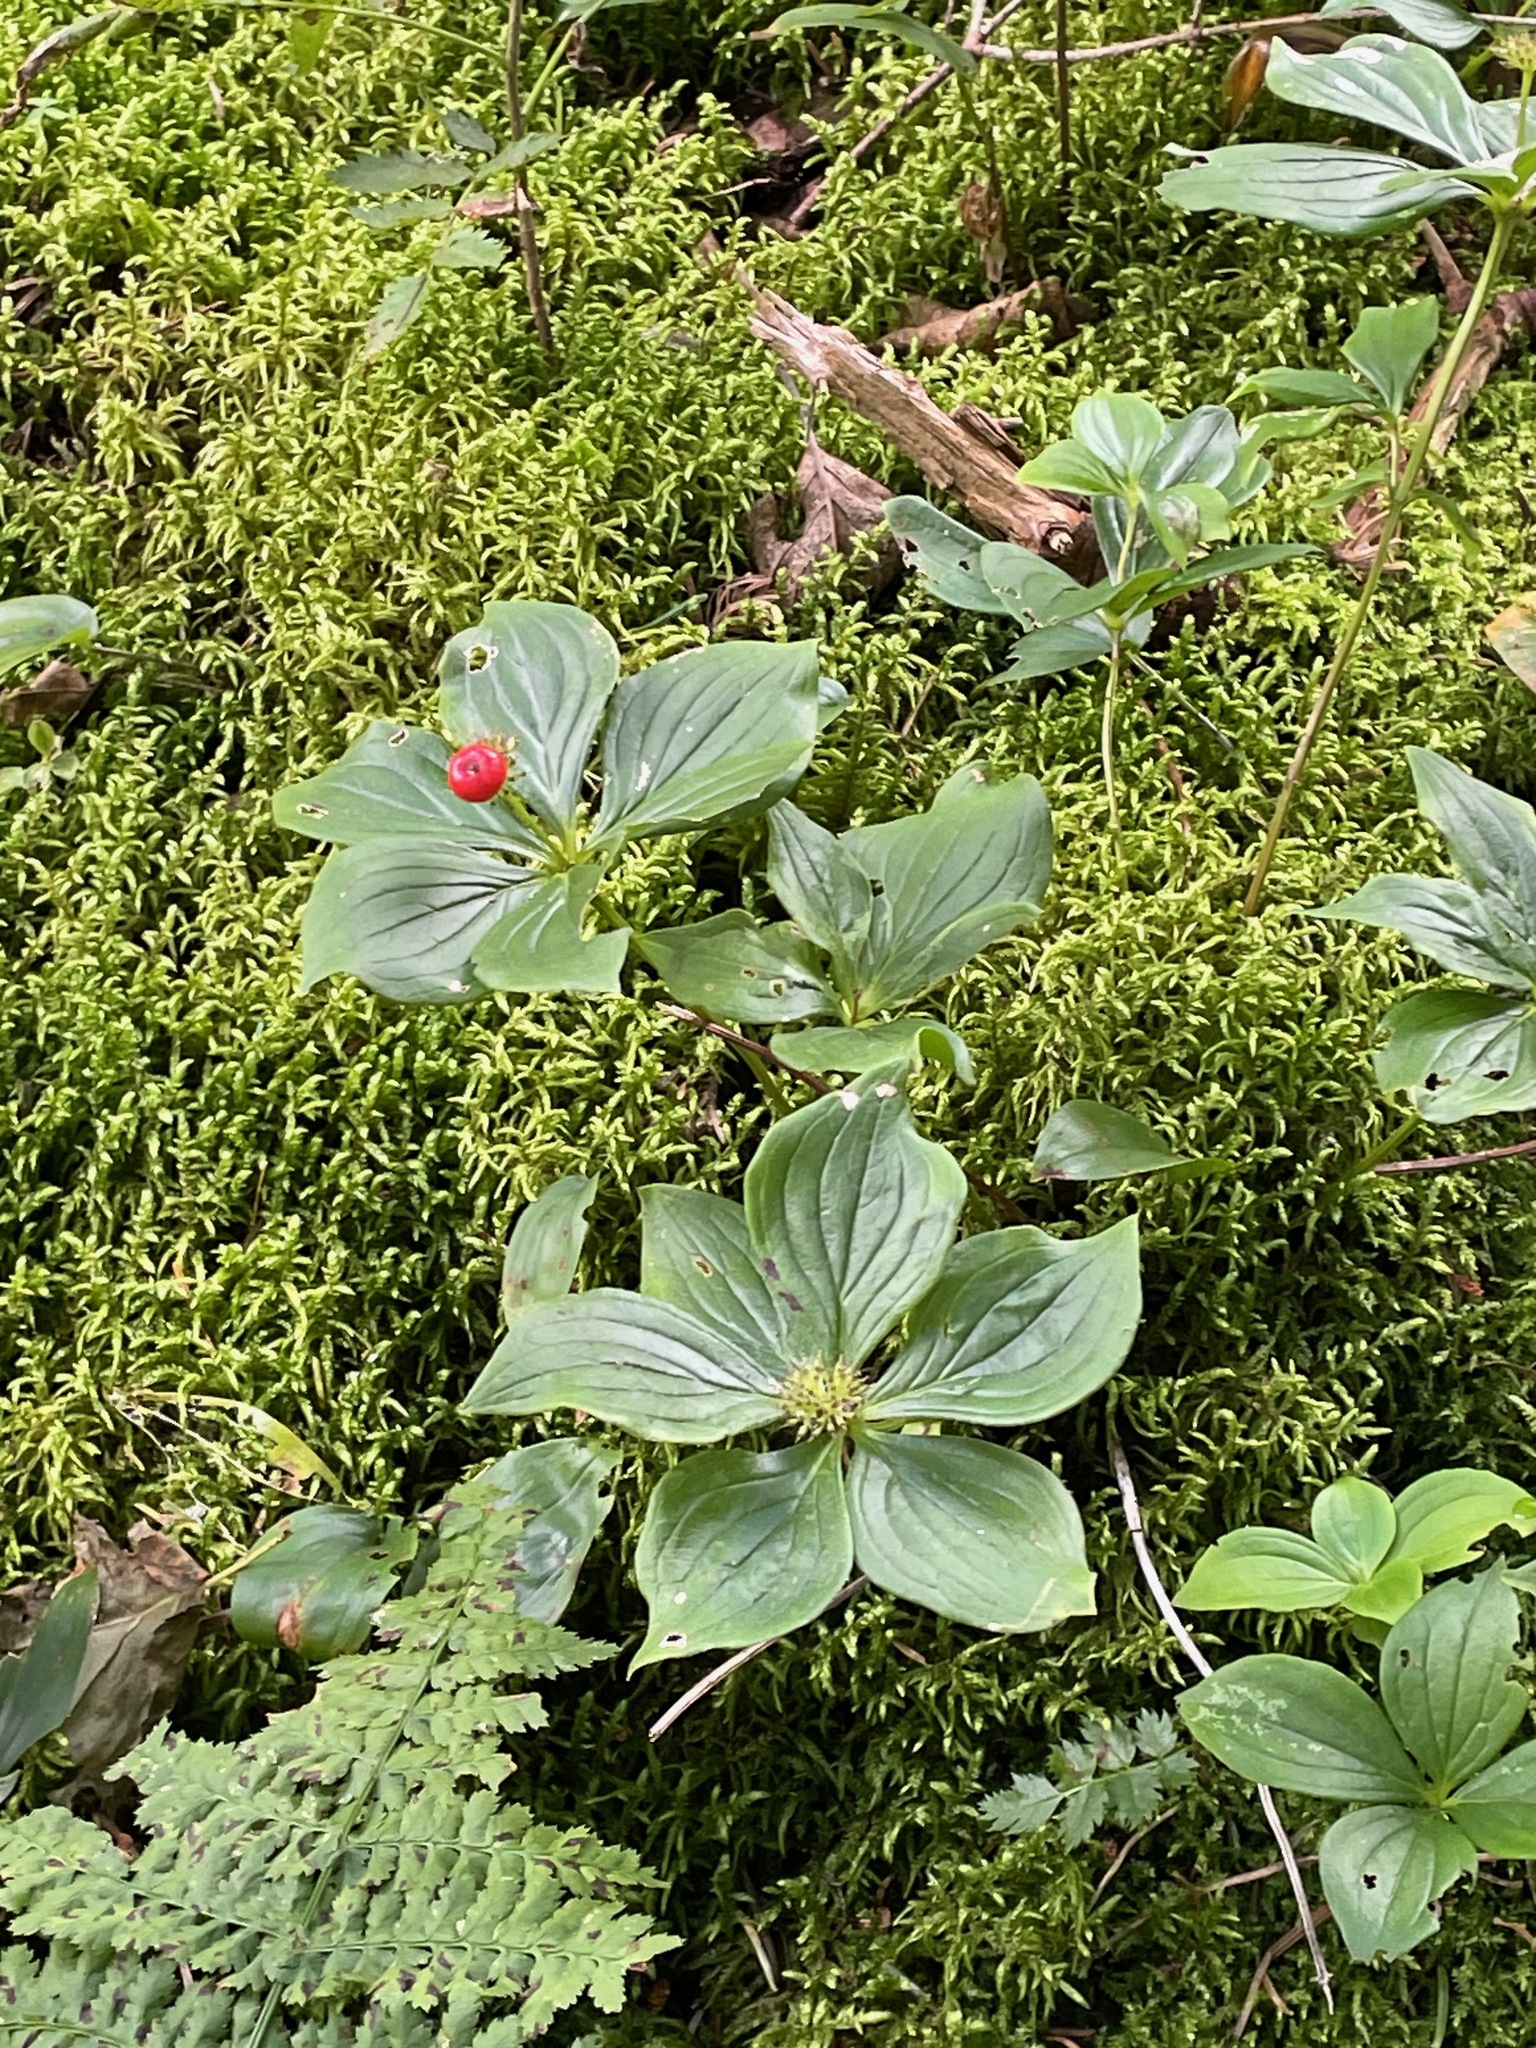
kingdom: Plantae
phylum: Tracheophyta
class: Magnoliopsida
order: Cornales
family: Cornaceae
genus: Cornus
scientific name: Cornus canadensis
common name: Creeping dogwood
